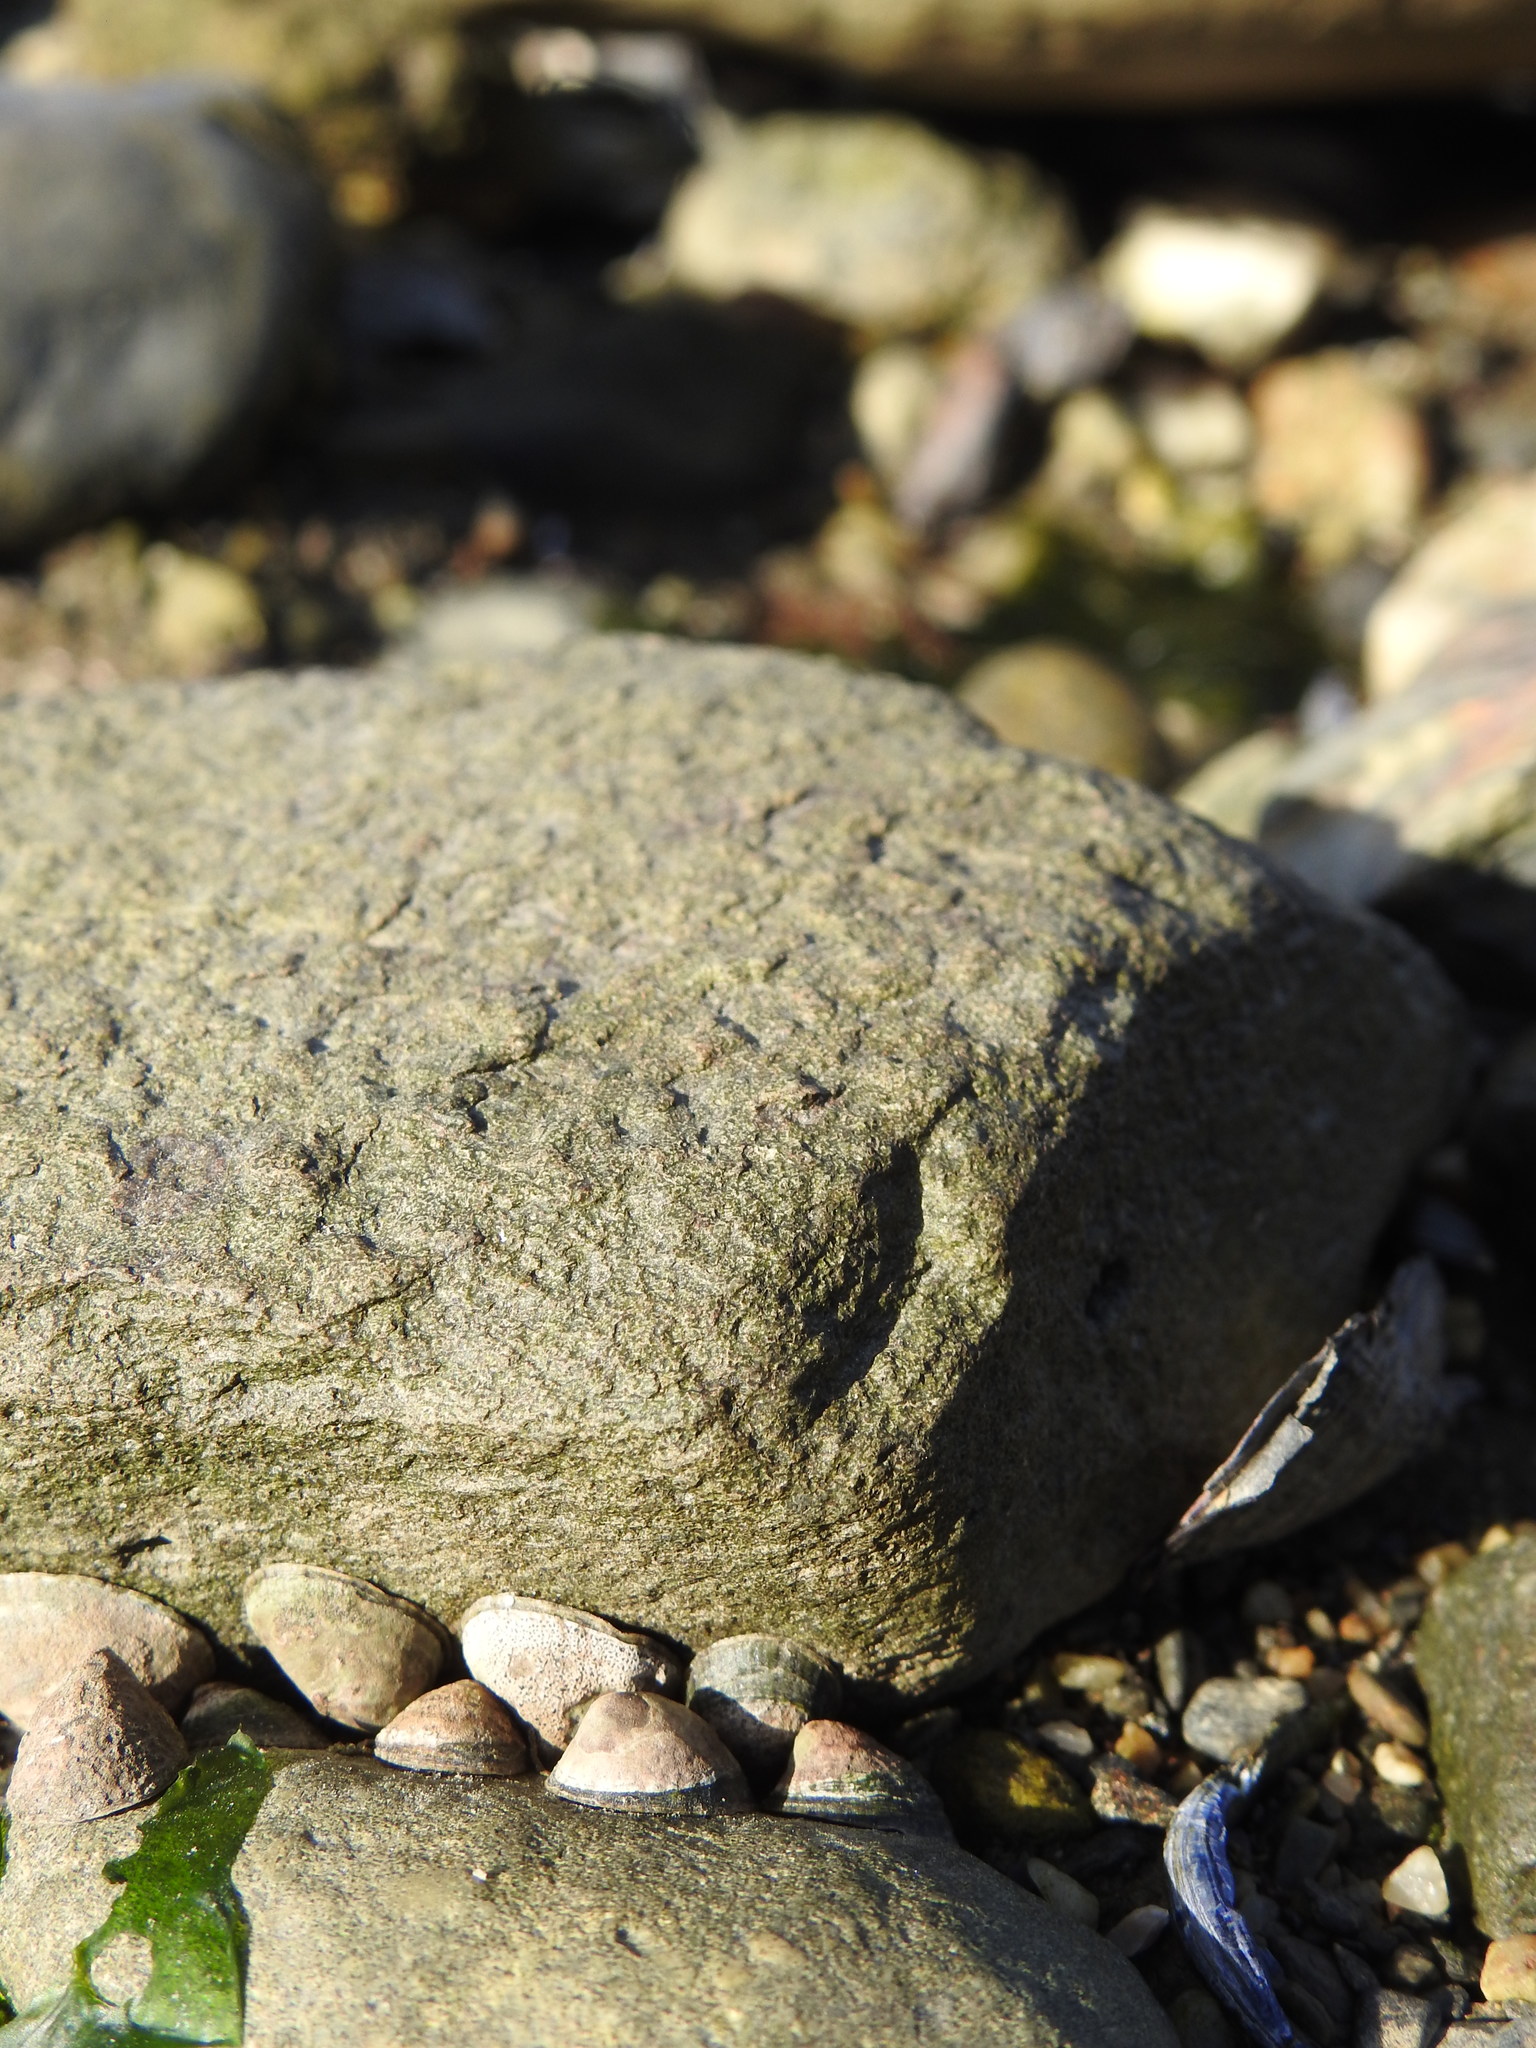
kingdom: Animalia
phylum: Mollusca
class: Gastropoda
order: Siphonariida
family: Siphonariidae
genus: Siphonaria
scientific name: Siphonaria lessonii
